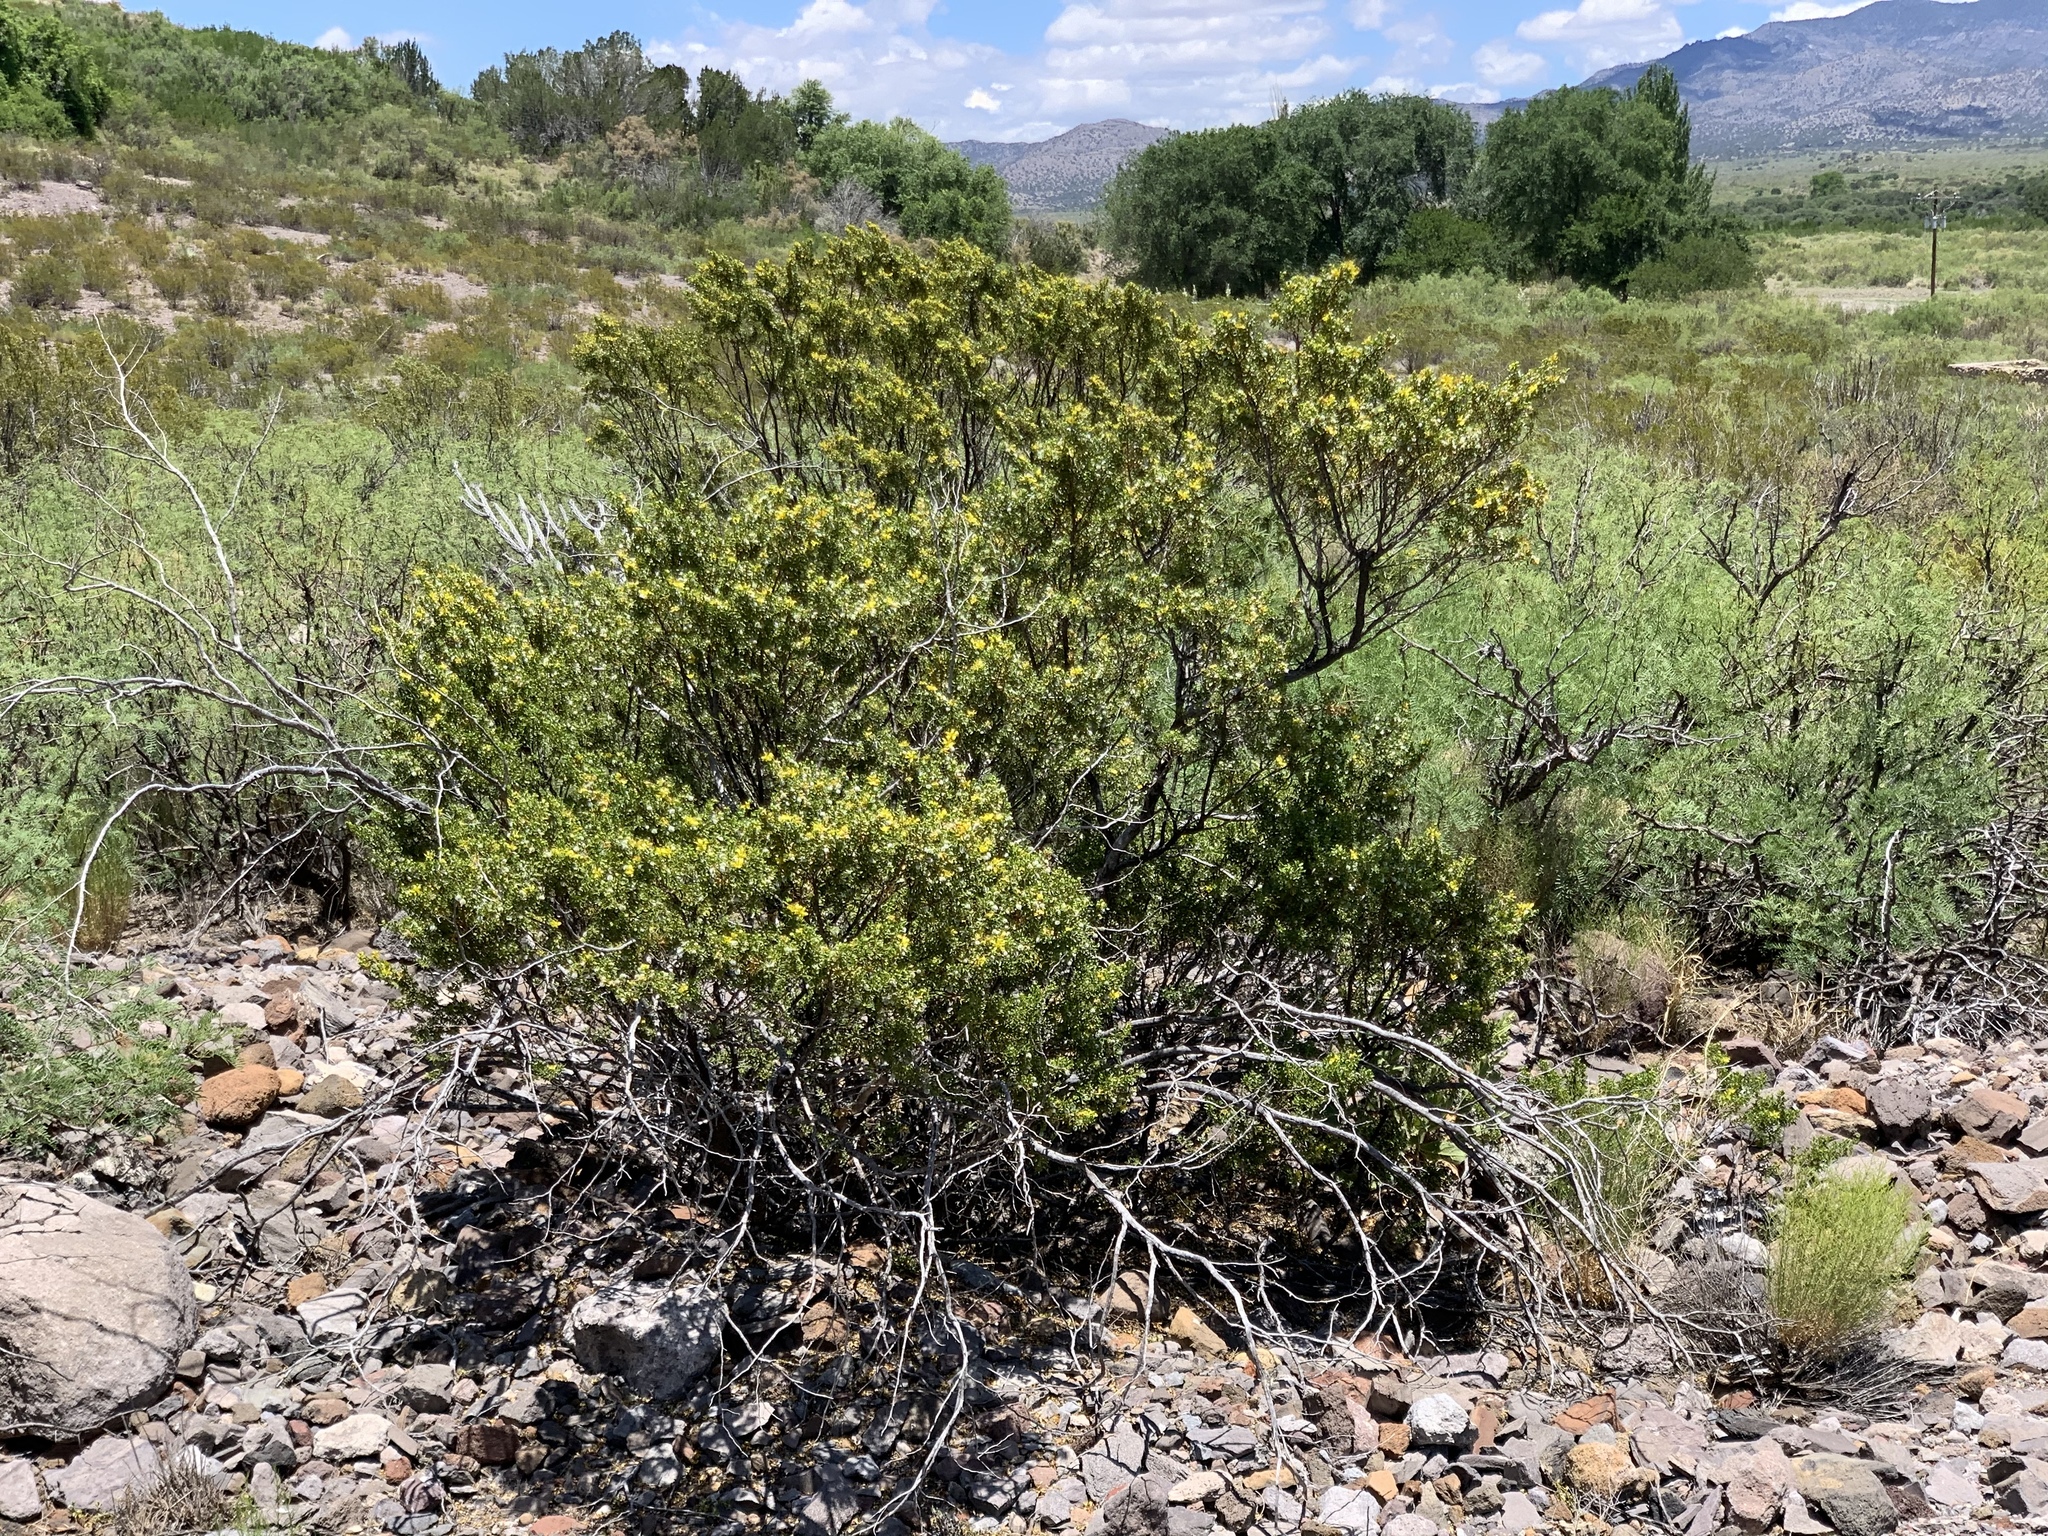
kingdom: Plantae
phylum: Tracheophyta
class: Magnoliopsida
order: Zygophyllales
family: Zygophyllaceae
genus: Larrea
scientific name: Larrea tridentata
